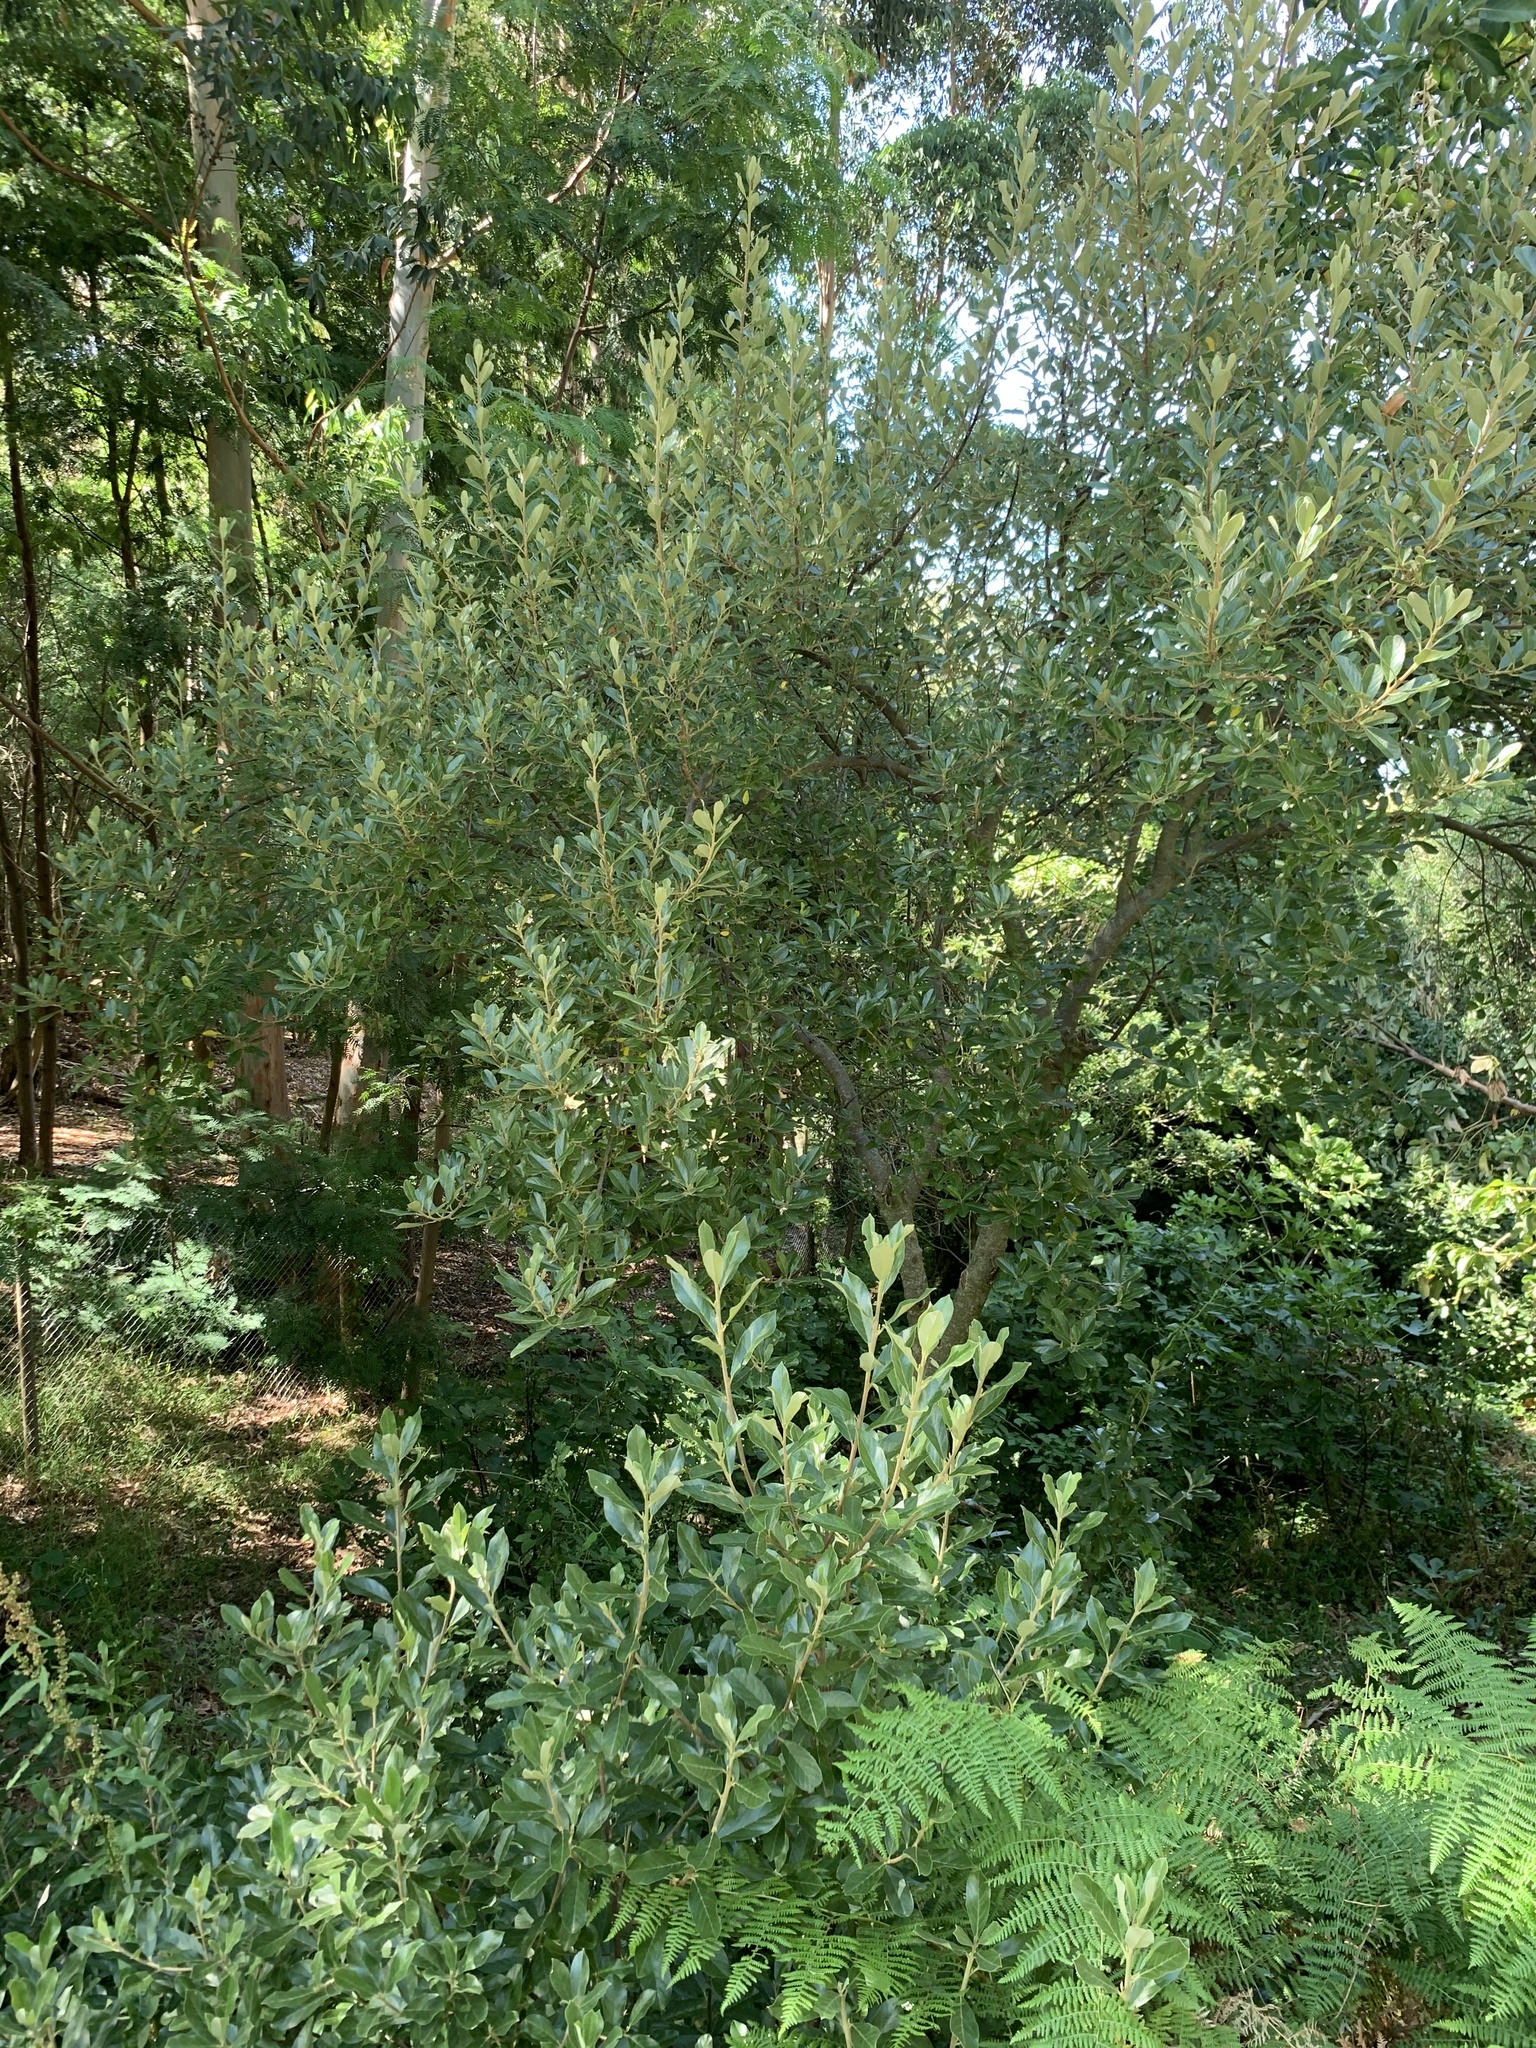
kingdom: Plantae
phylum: Tracheophyta
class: Magnoliopsida
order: Malpighiales
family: Achariaceae
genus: Kiggelaria
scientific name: Kiggelaria africana
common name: Wild peach
